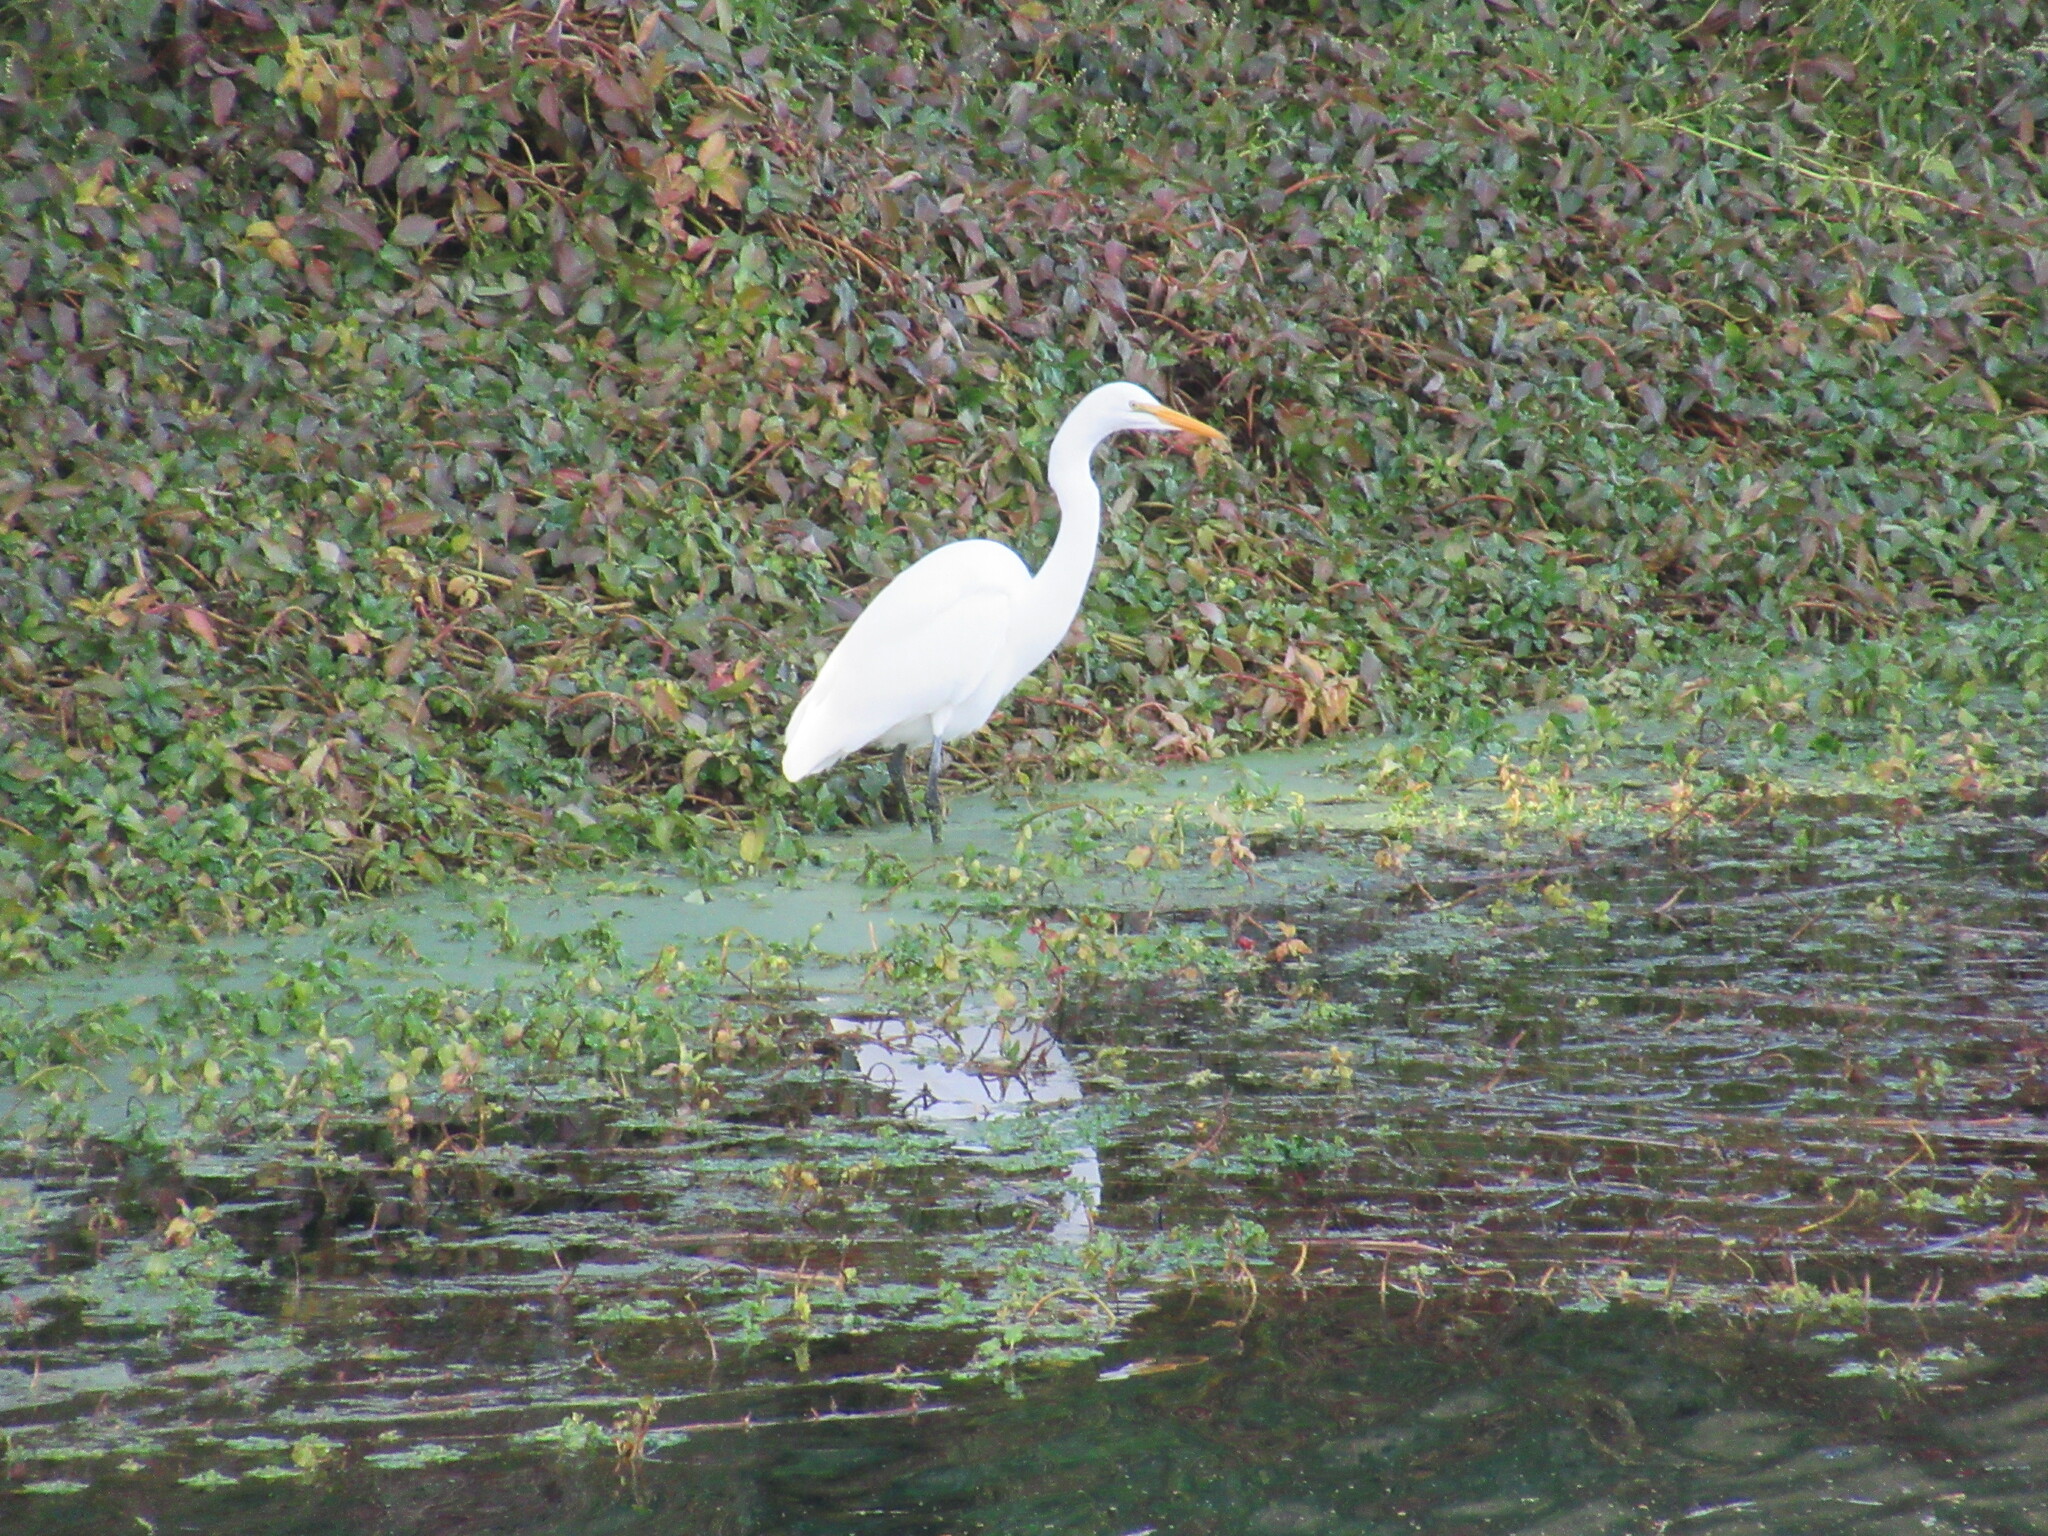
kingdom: Animalia
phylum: Chordata
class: Aves
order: Pelecaniformes
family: Ardeidae
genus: Ardea
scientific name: Ardea alba
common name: Great egret
